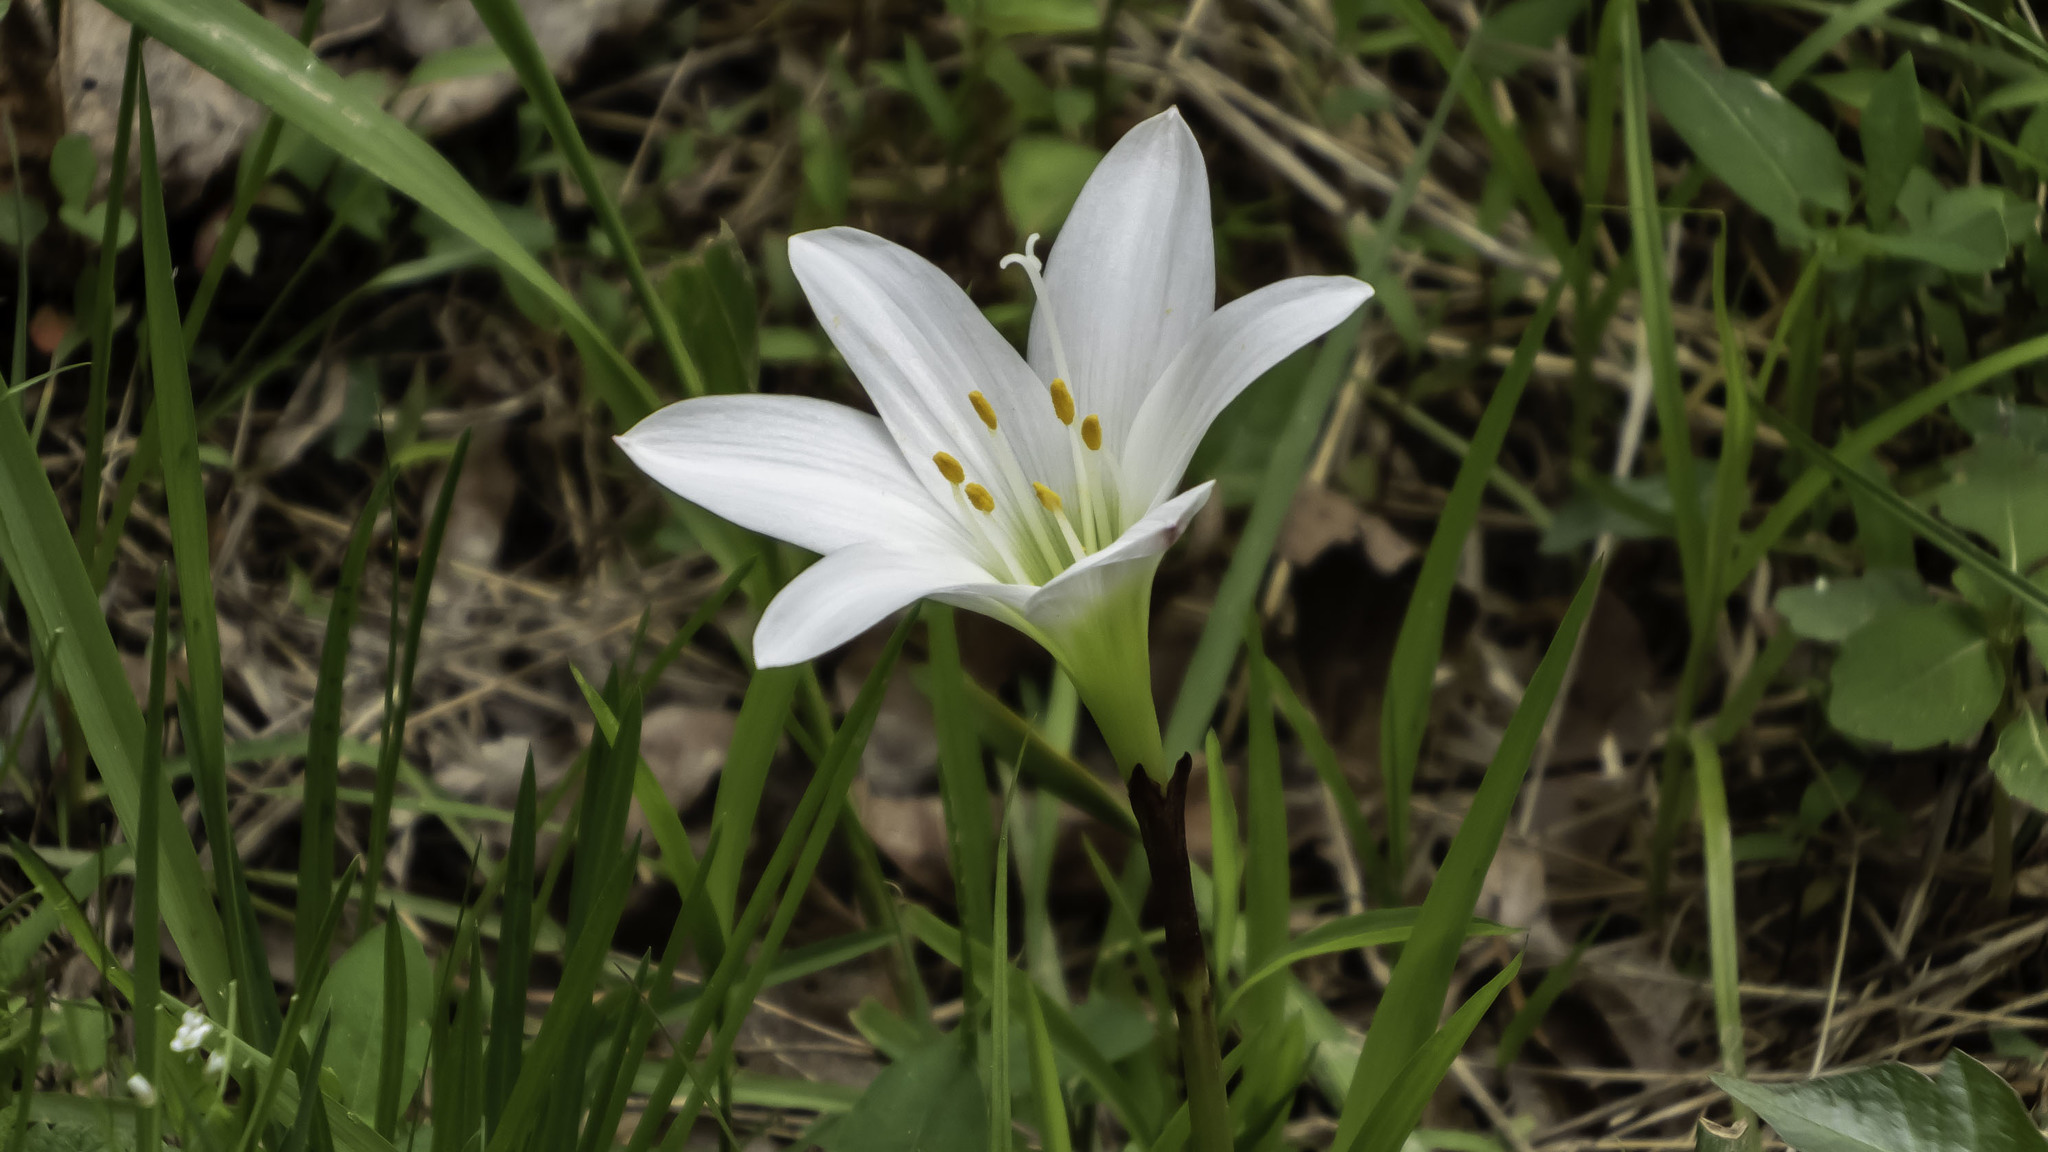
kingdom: Plantae
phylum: Tracheophyta
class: Liliopsida
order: Asparagales
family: Amaryllidaceae
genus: Zephyranthes
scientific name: Zephyranthes atamasco
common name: Atamasco lily
